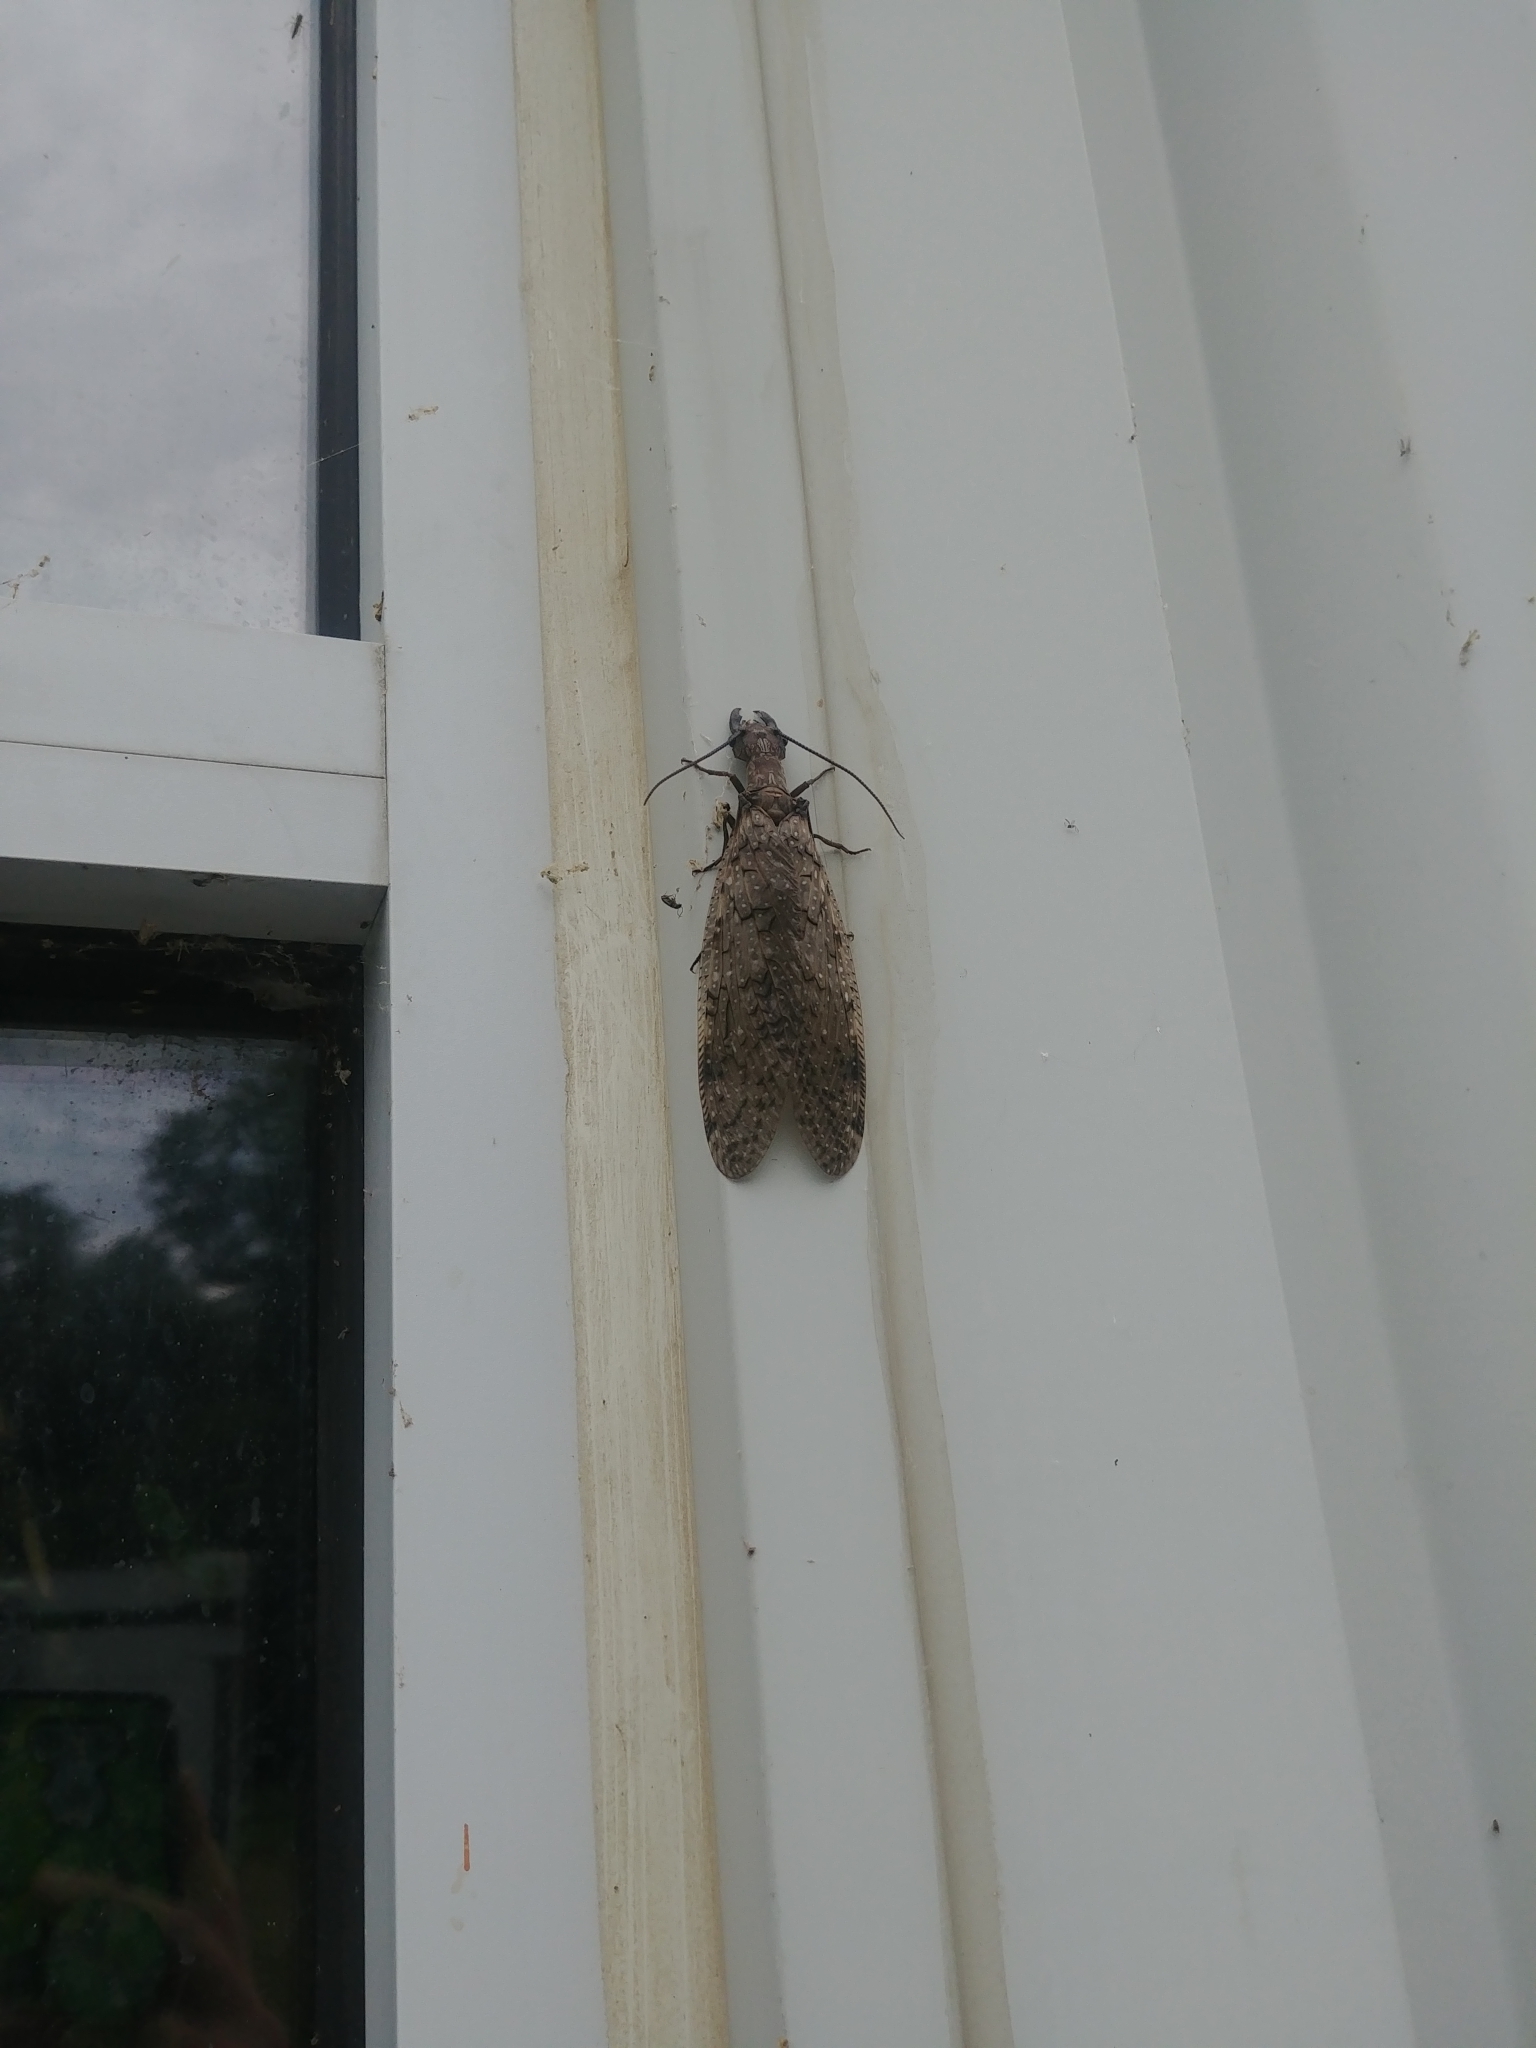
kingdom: Animalia
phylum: Arthropoda
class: Insecta
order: Megaloptera
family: Corydalidae
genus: Corydalus
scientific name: Corydalus cornutus
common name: Dobsonfly
